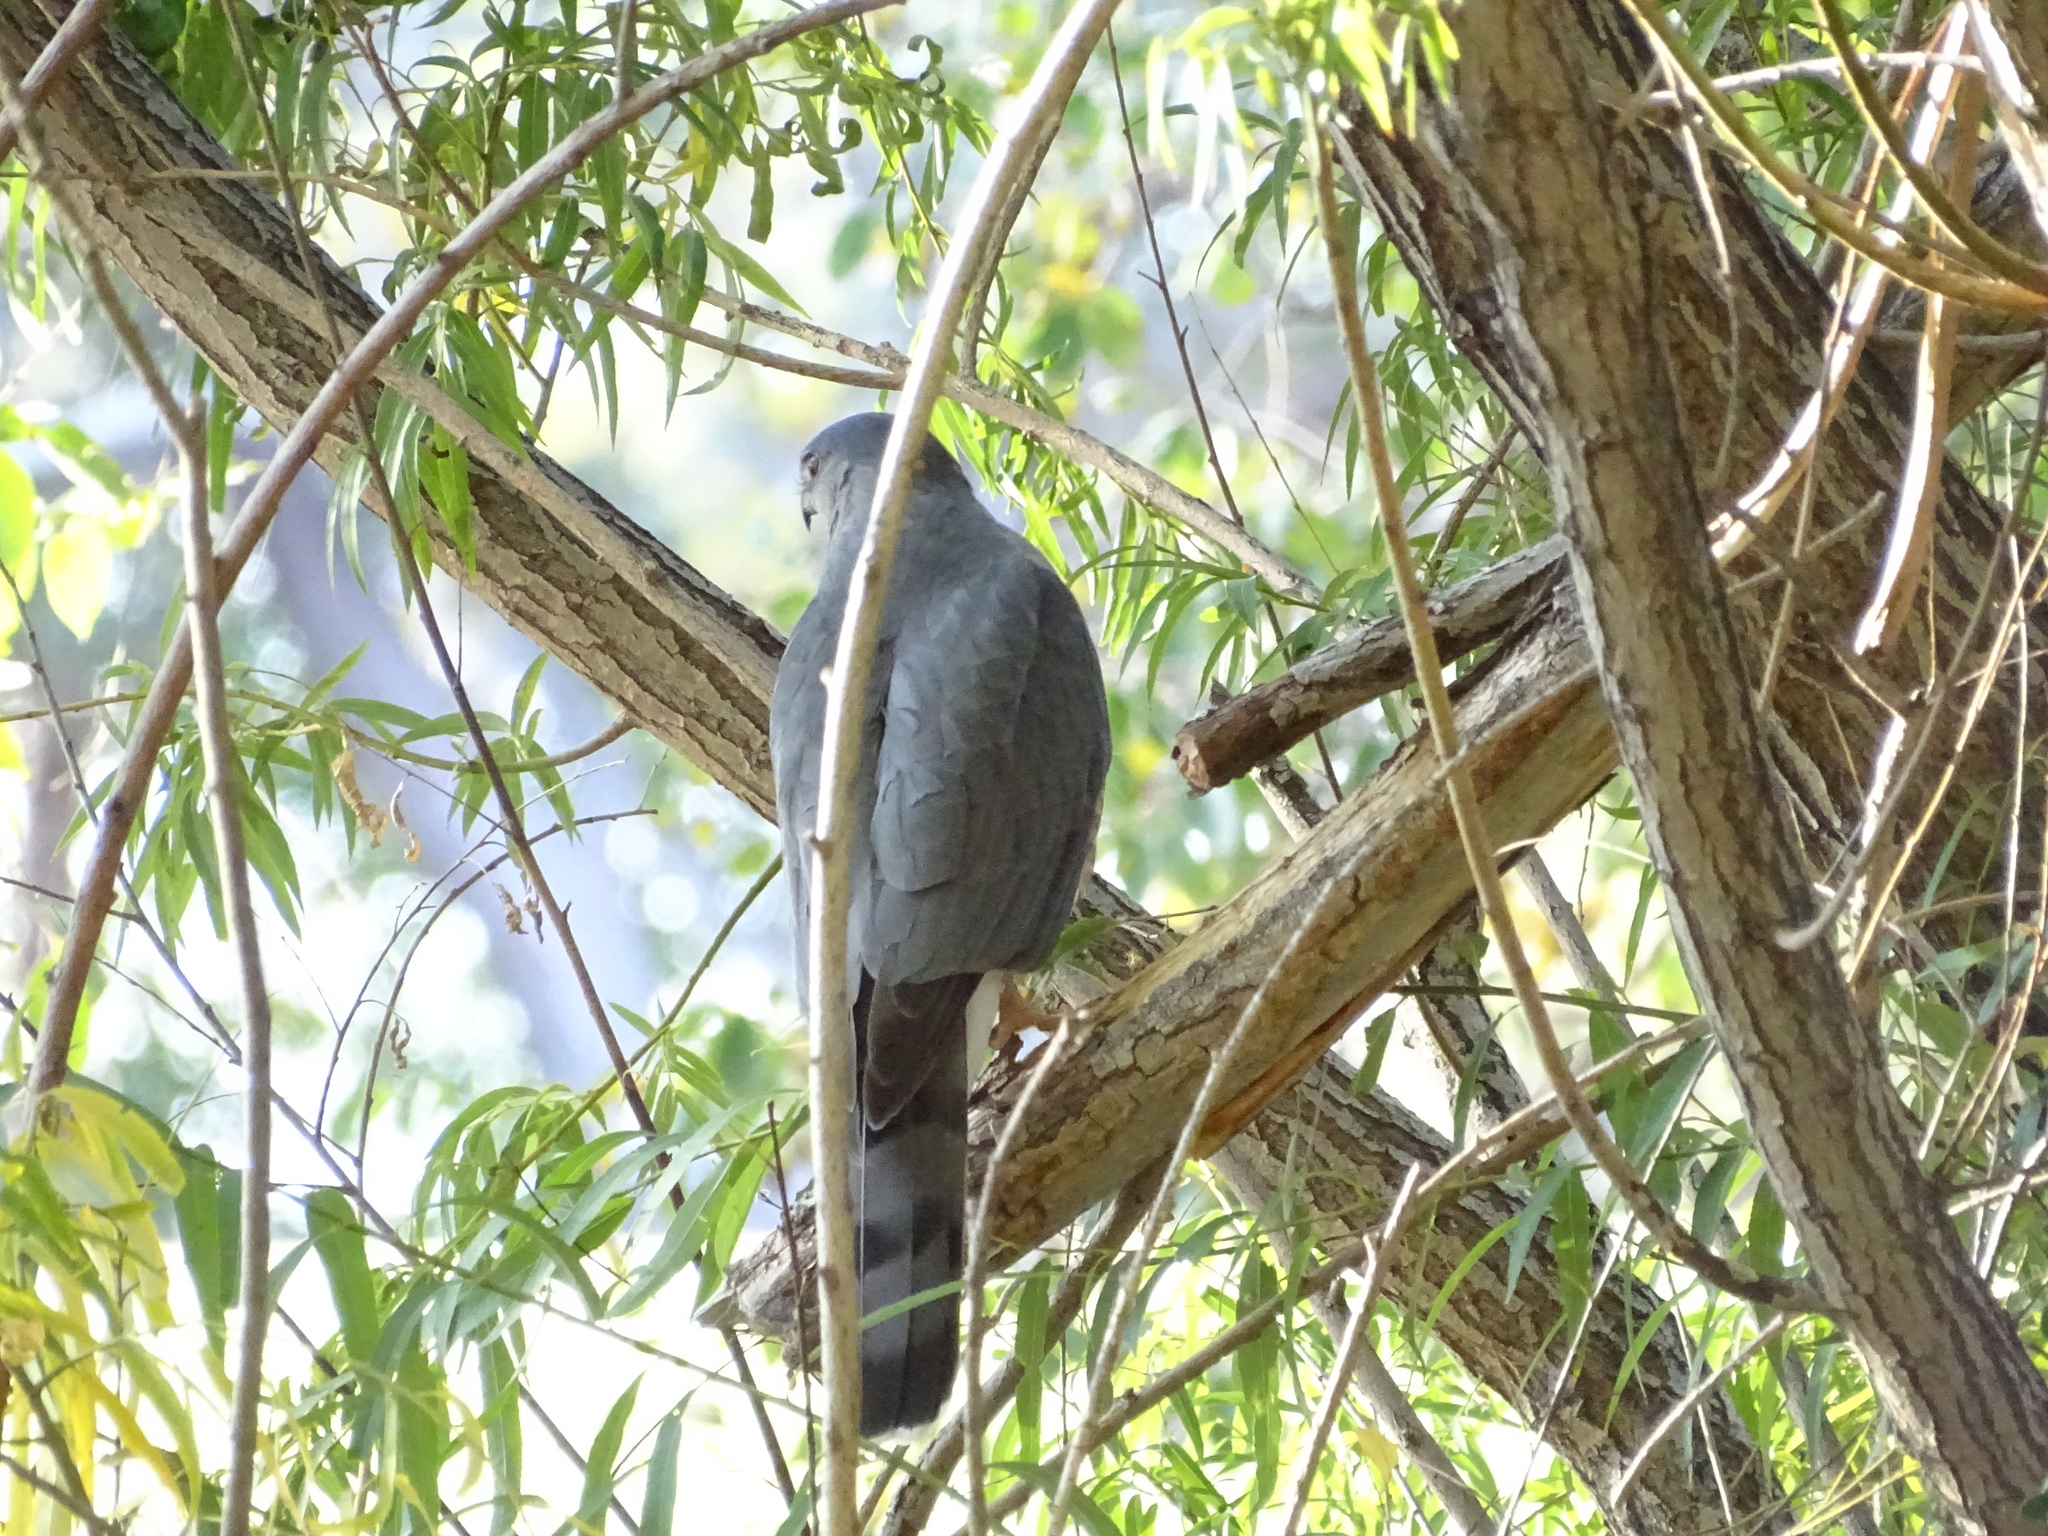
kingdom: Animalia
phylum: Chordata
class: Aves
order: Accipitriformes
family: Accipitridae
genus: Accipiter
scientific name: Accipiter cooperii
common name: Cooper's hawk
